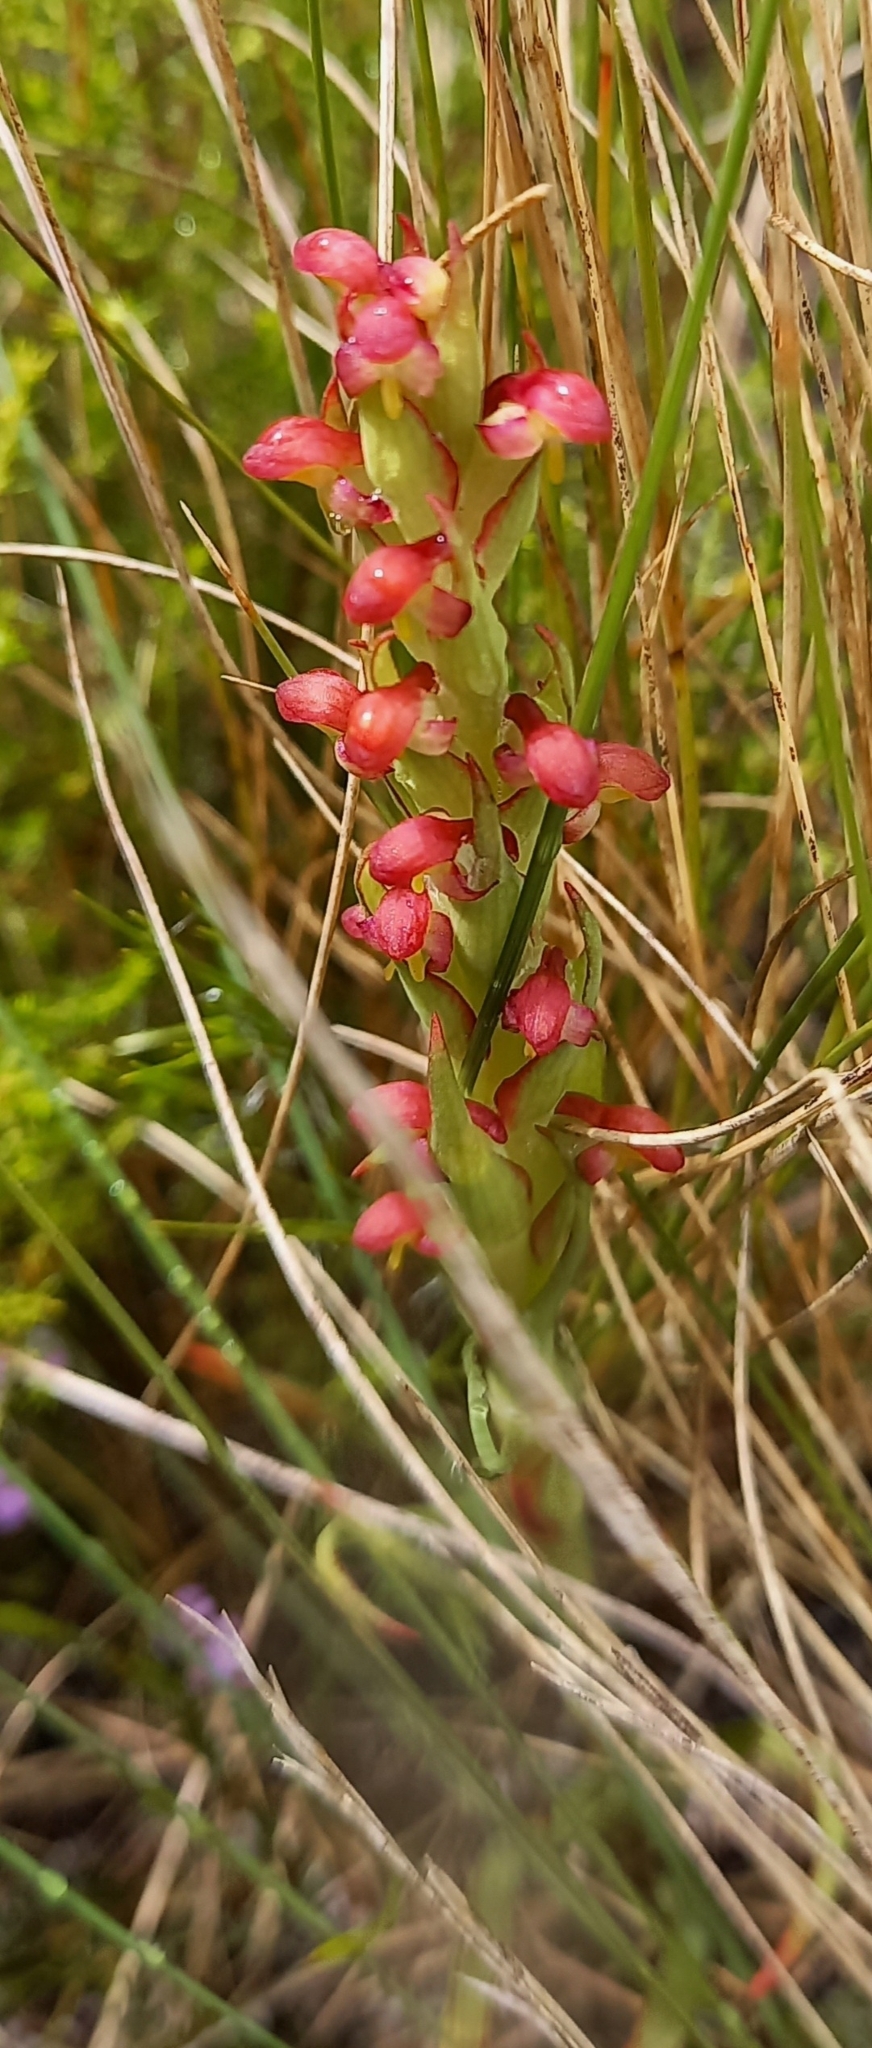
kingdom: Plantae
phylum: Tracheophyta
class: Liliopsida
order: Asparagales
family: Orchidaceae
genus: Disa
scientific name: Disa bracteata
